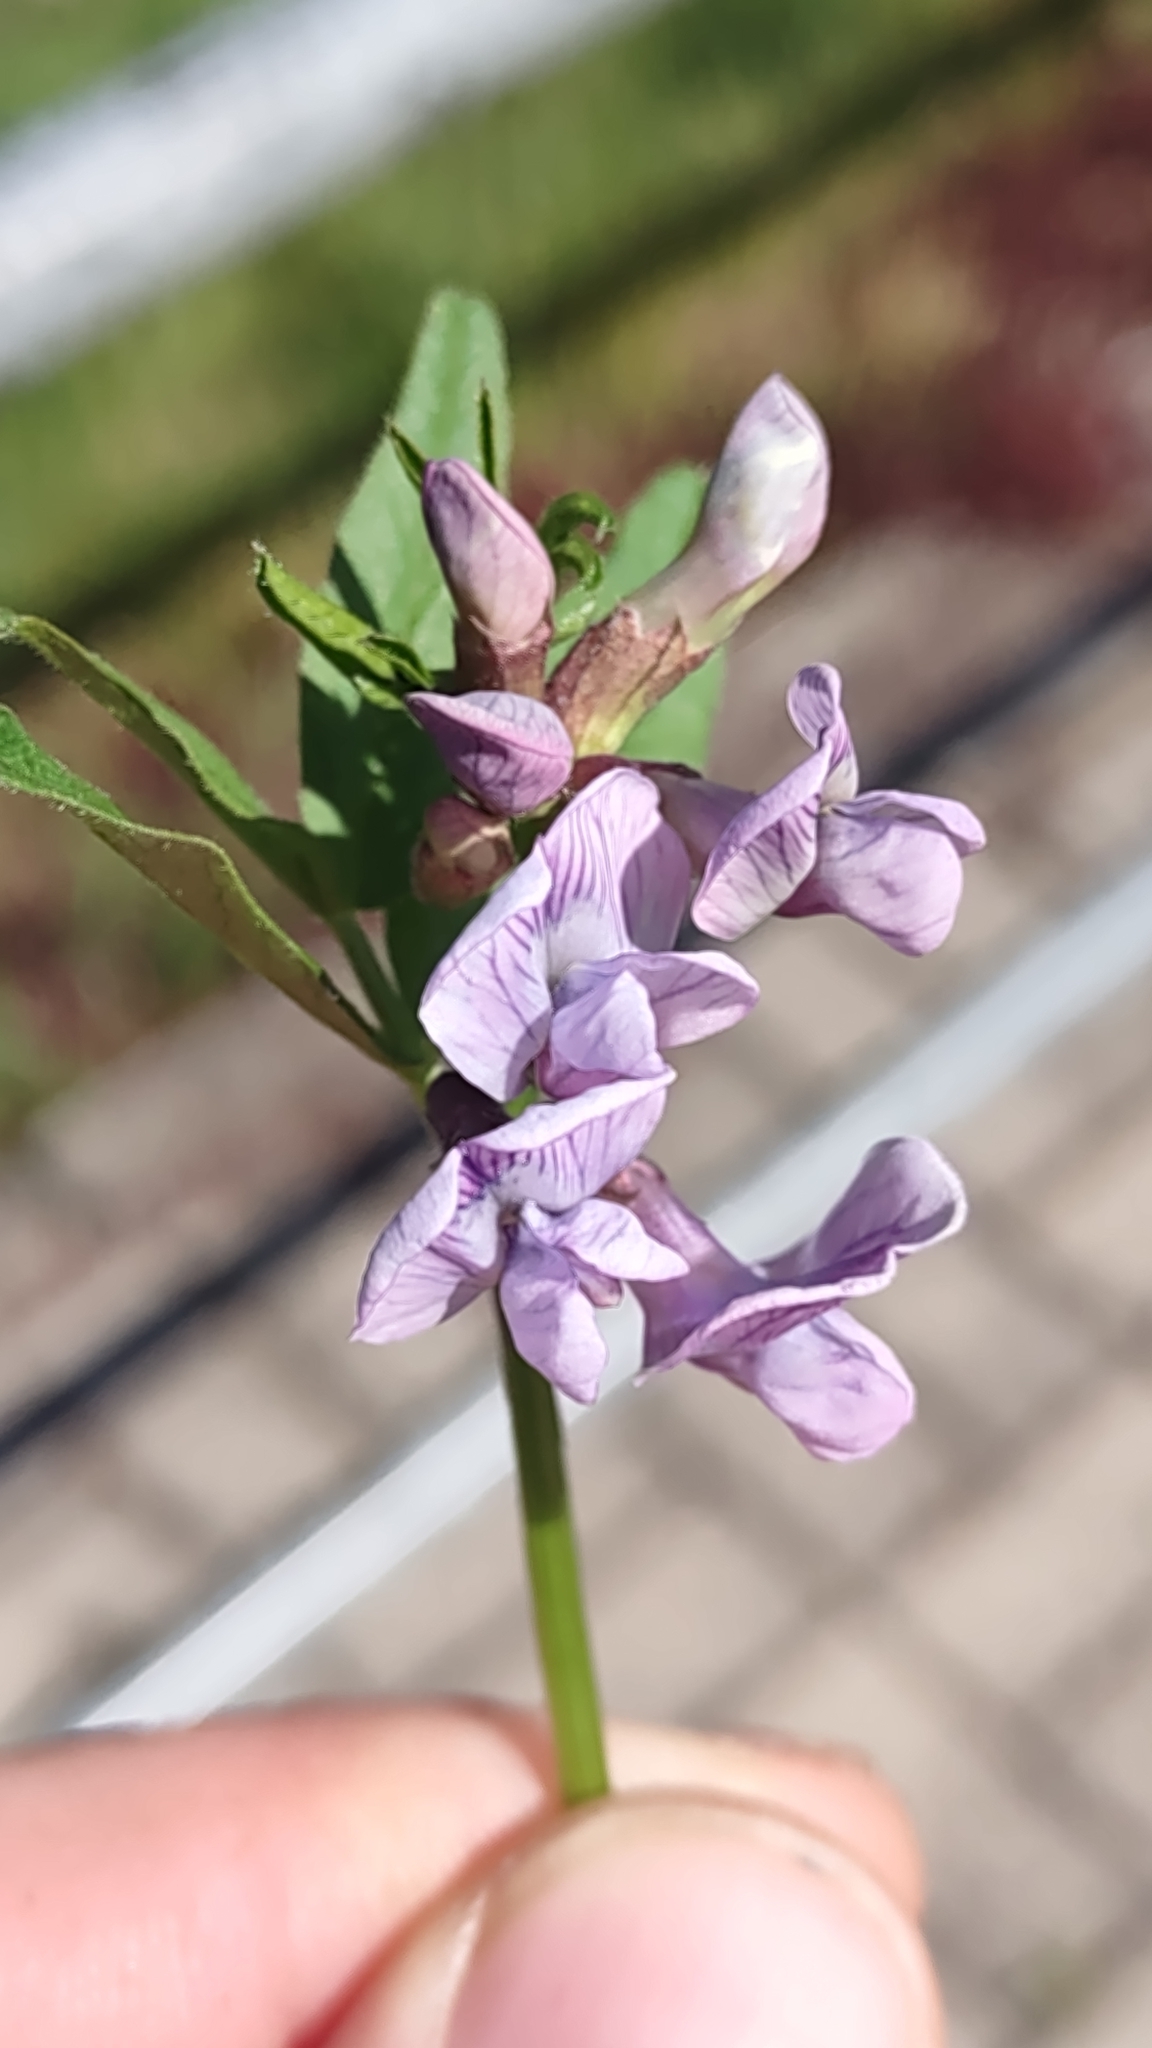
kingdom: Plantae
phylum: Tracheophyta
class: Magnoliopsida
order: Fabales
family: Fabaceae
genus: Vicia
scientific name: Vicia sepium
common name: Bush vetch
